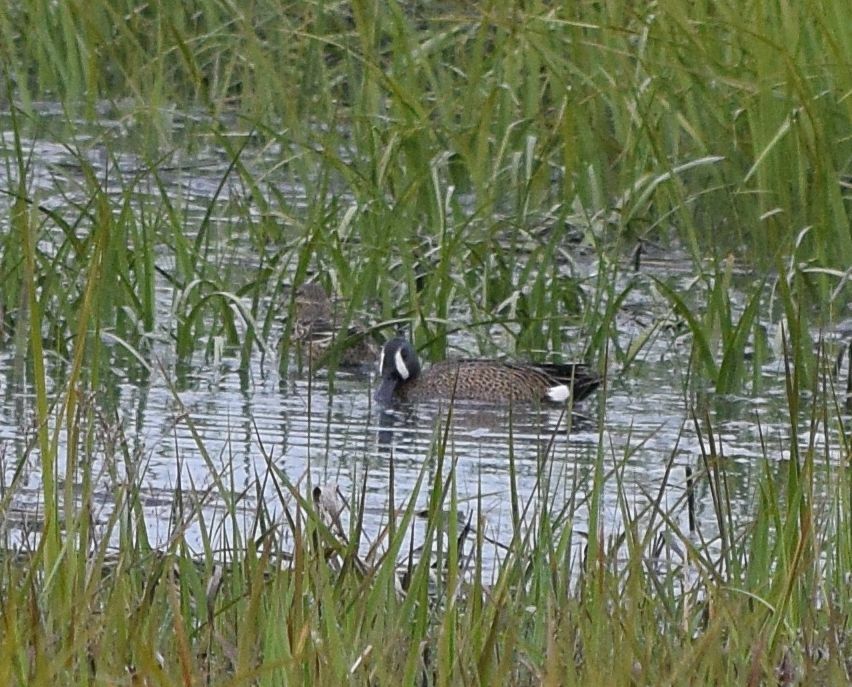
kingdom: Animalia
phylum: Chordata
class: Aves
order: Anseriformes
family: Anatidae
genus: Spatula
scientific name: Spatula discors
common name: Blue-winged teal
